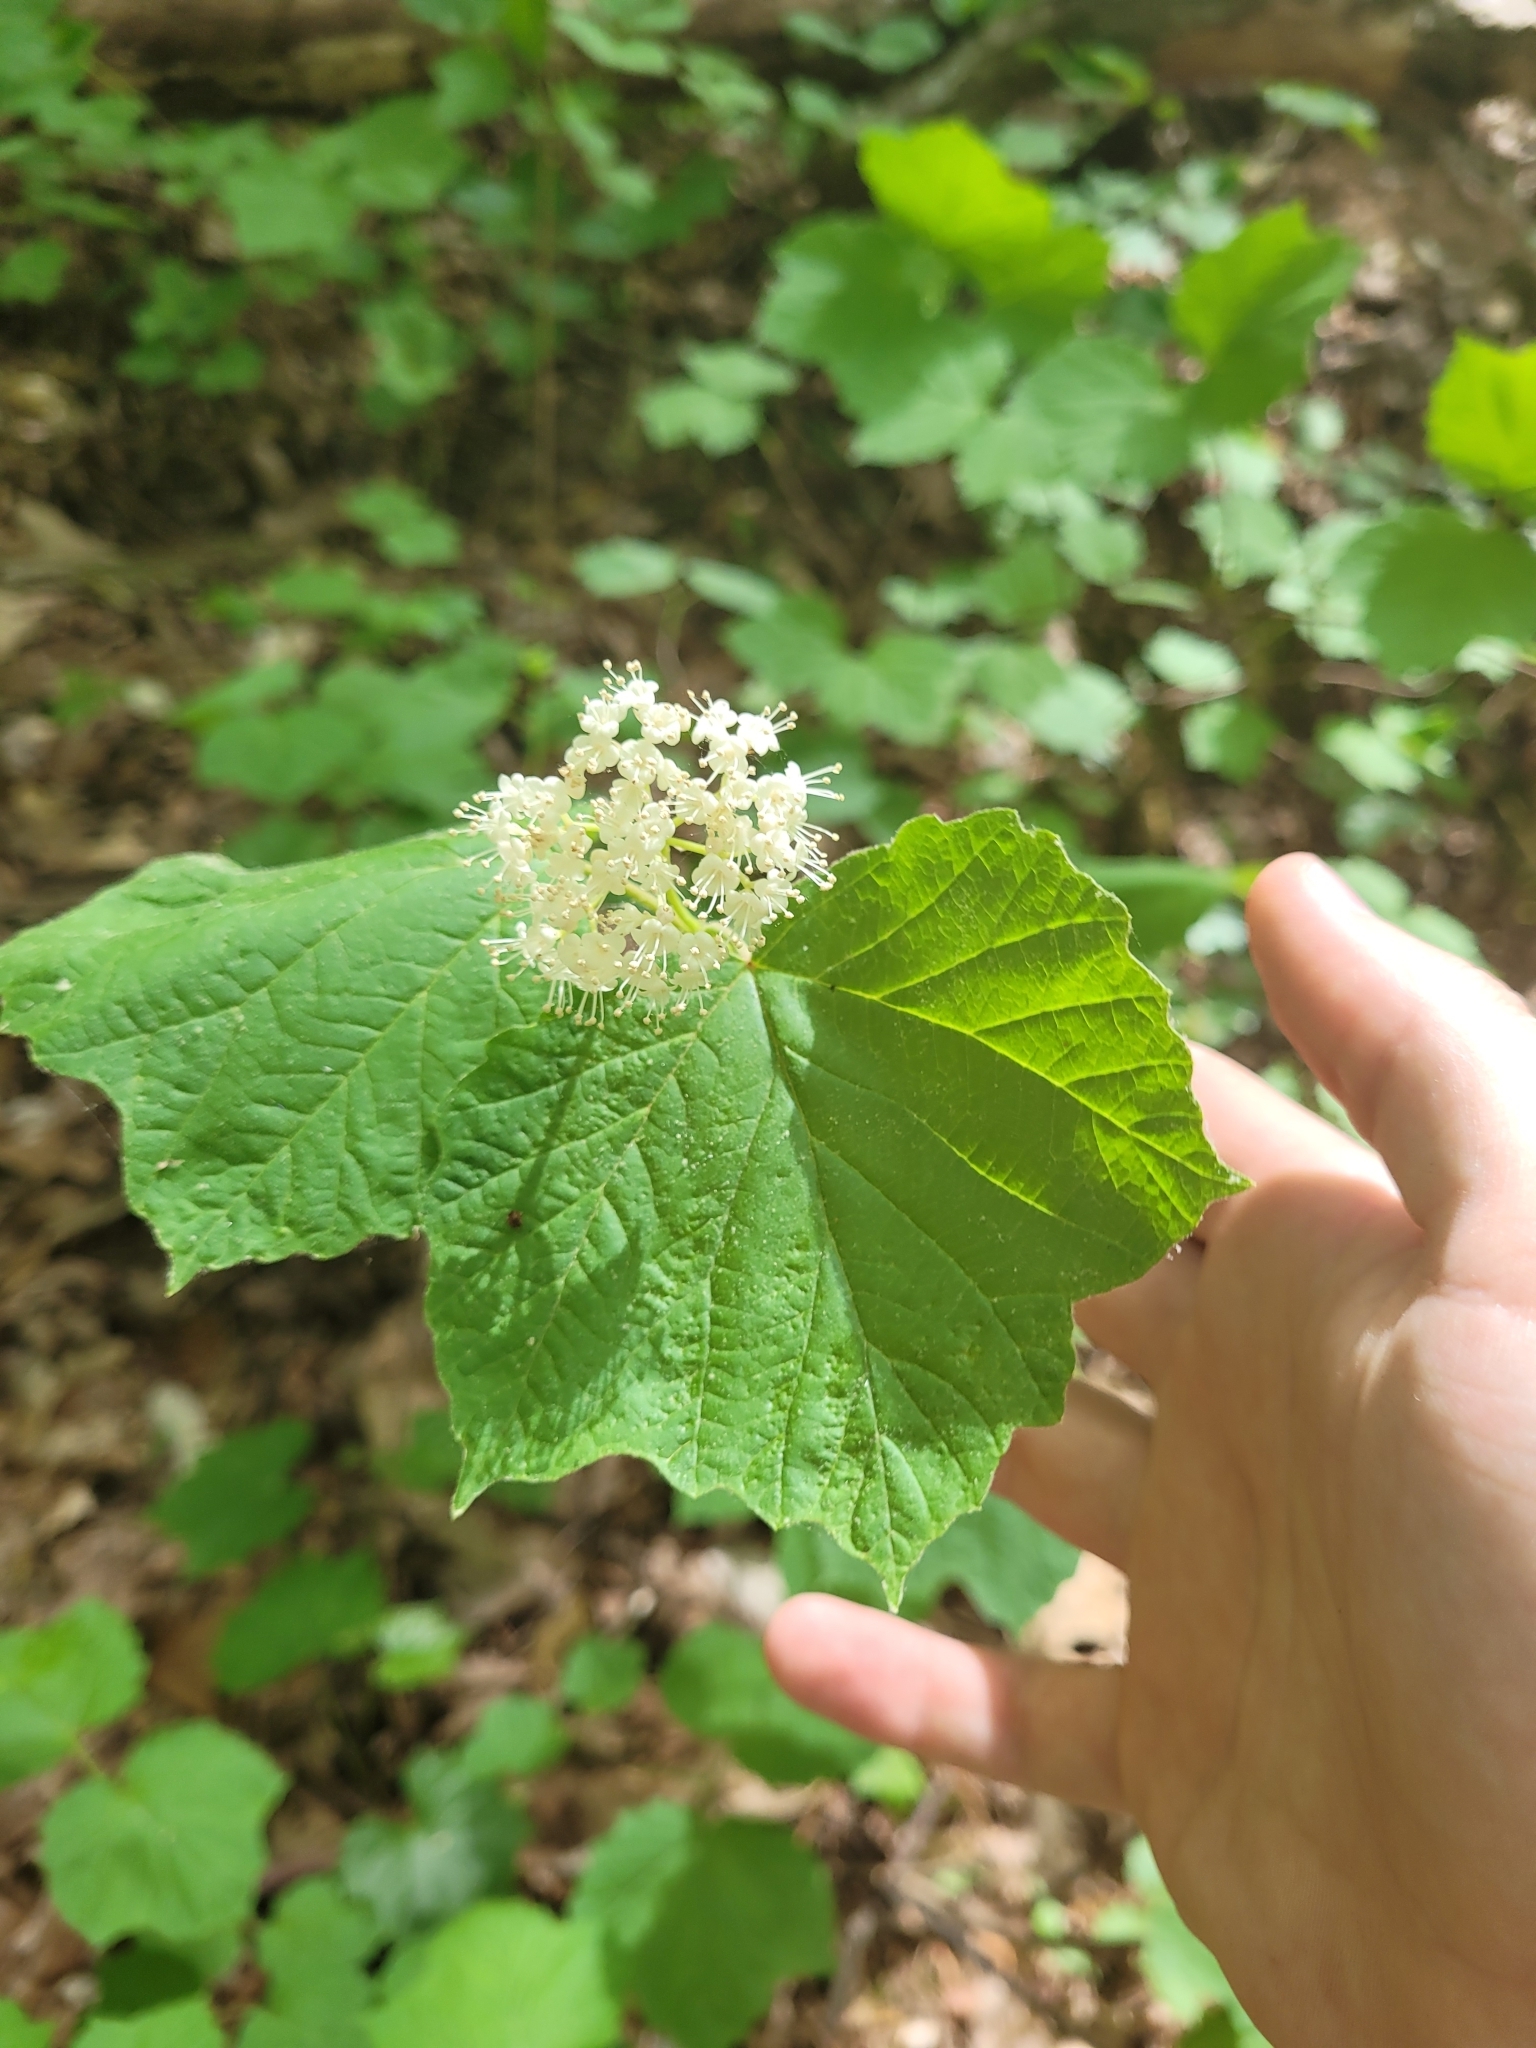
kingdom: Plantae
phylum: Tracheophyta
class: Magnoliopsida
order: Dipsacales
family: Viburnaceae
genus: Viburnum
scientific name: Viburnum acerifolium
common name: Dockmackie
